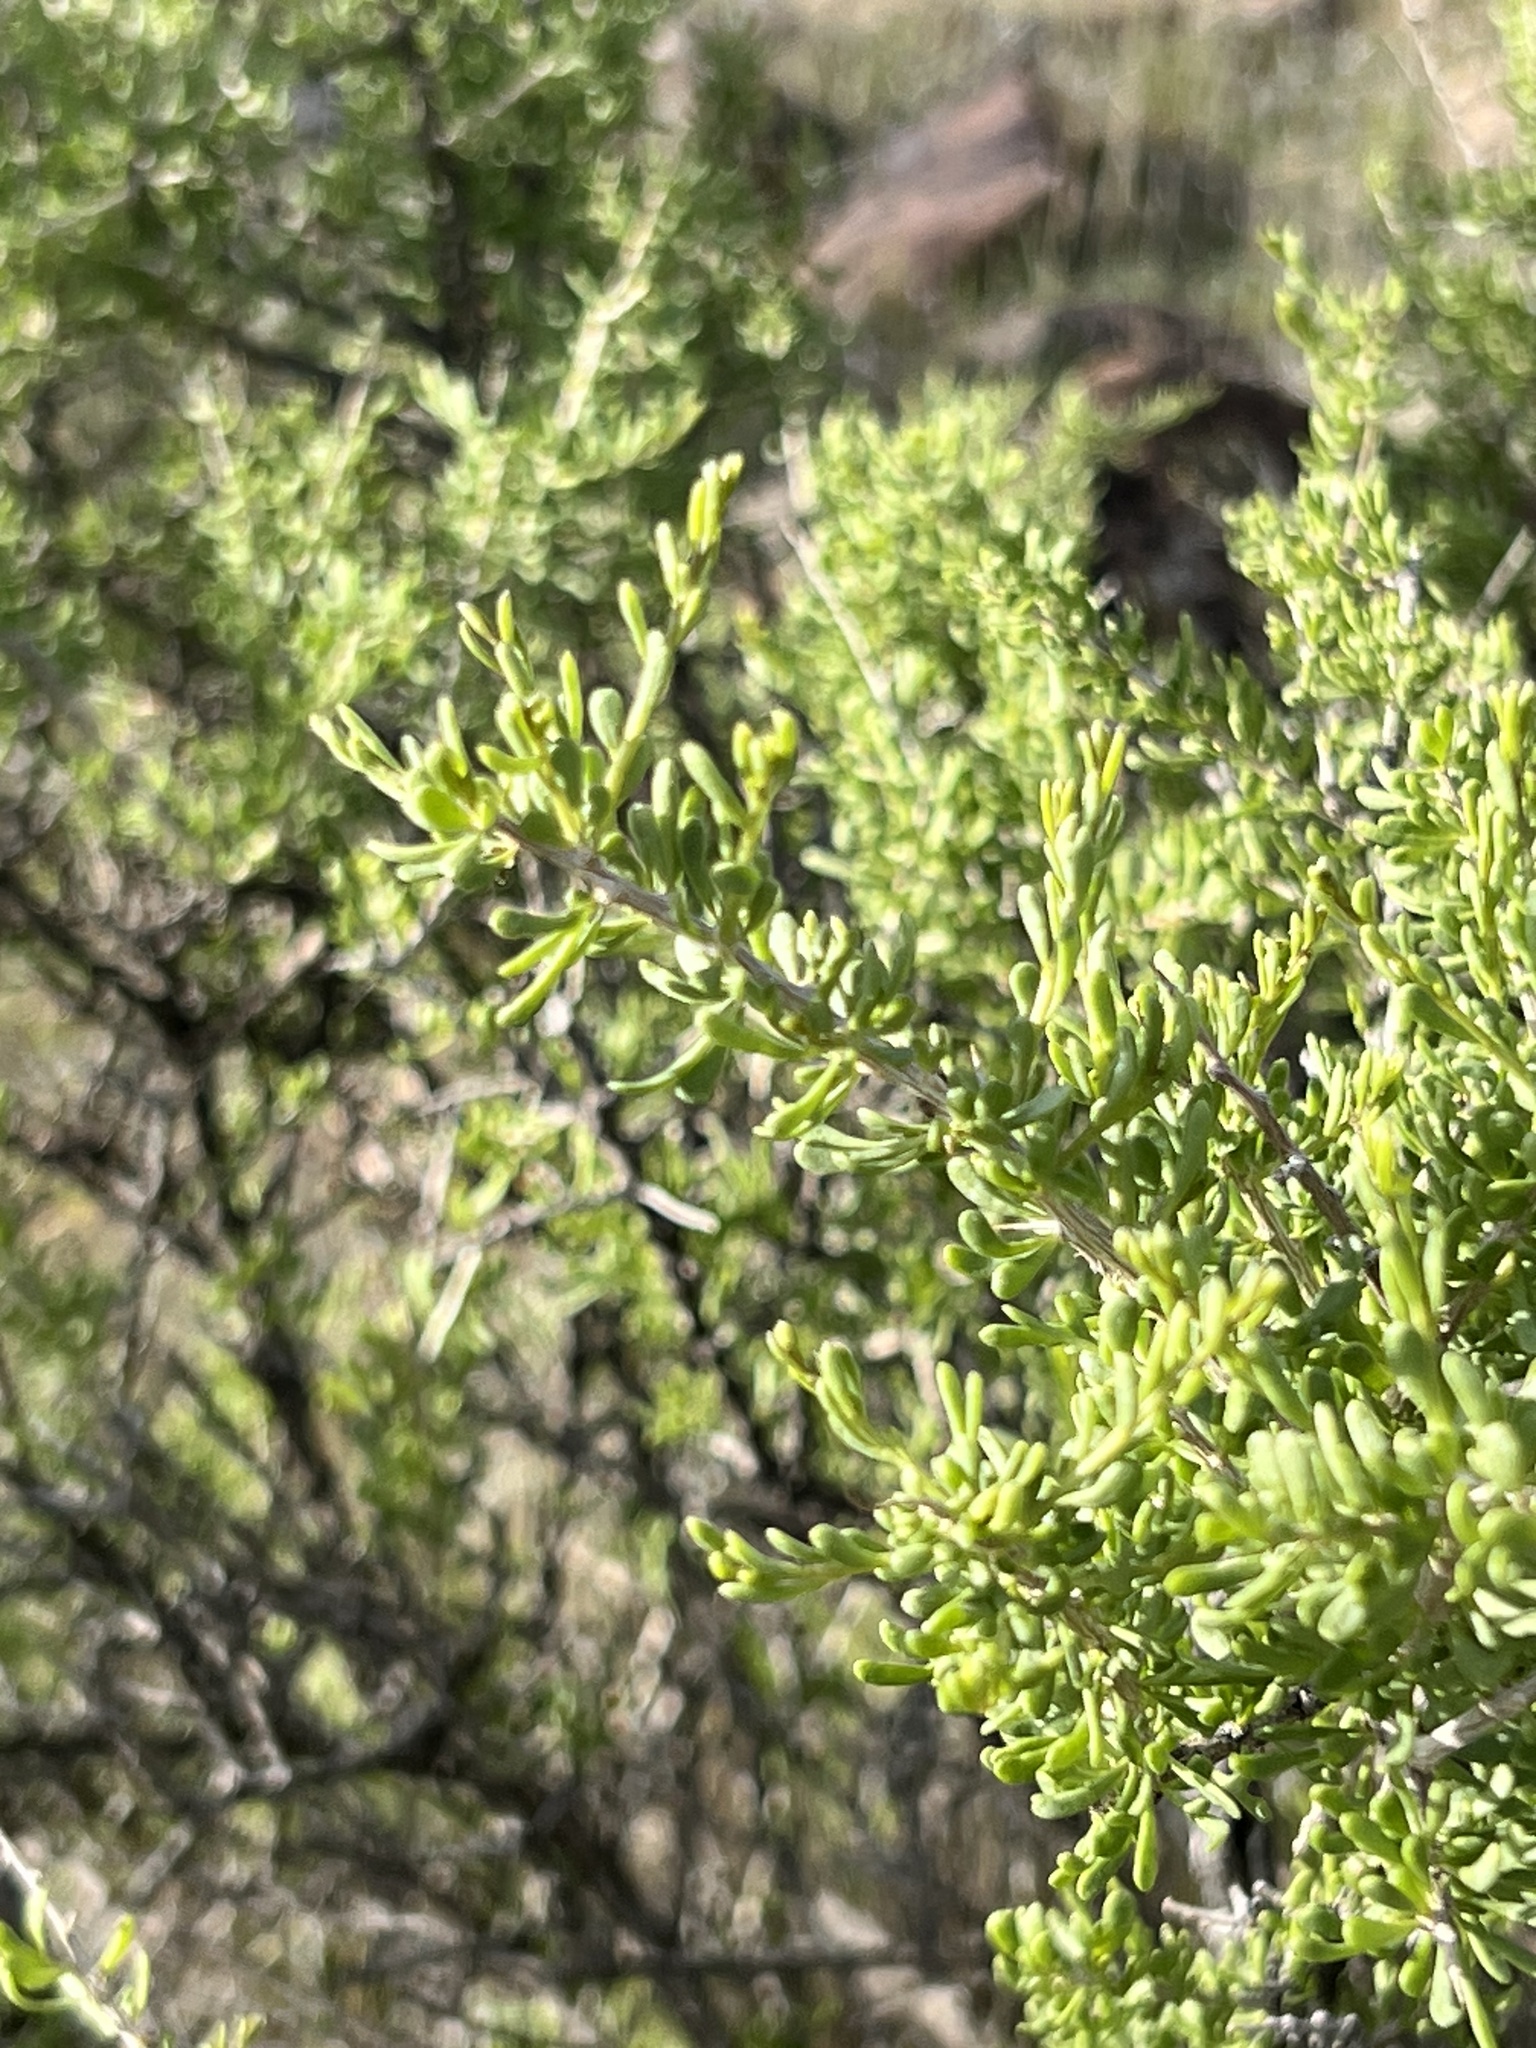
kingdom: Plantae
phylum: Tracheophyta
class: Magnoliopsida
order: Caryophyllales
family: Sarcobataceae
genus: Sarcobatus
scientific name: Sarcobatus vermiculatus
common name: Greasewood
